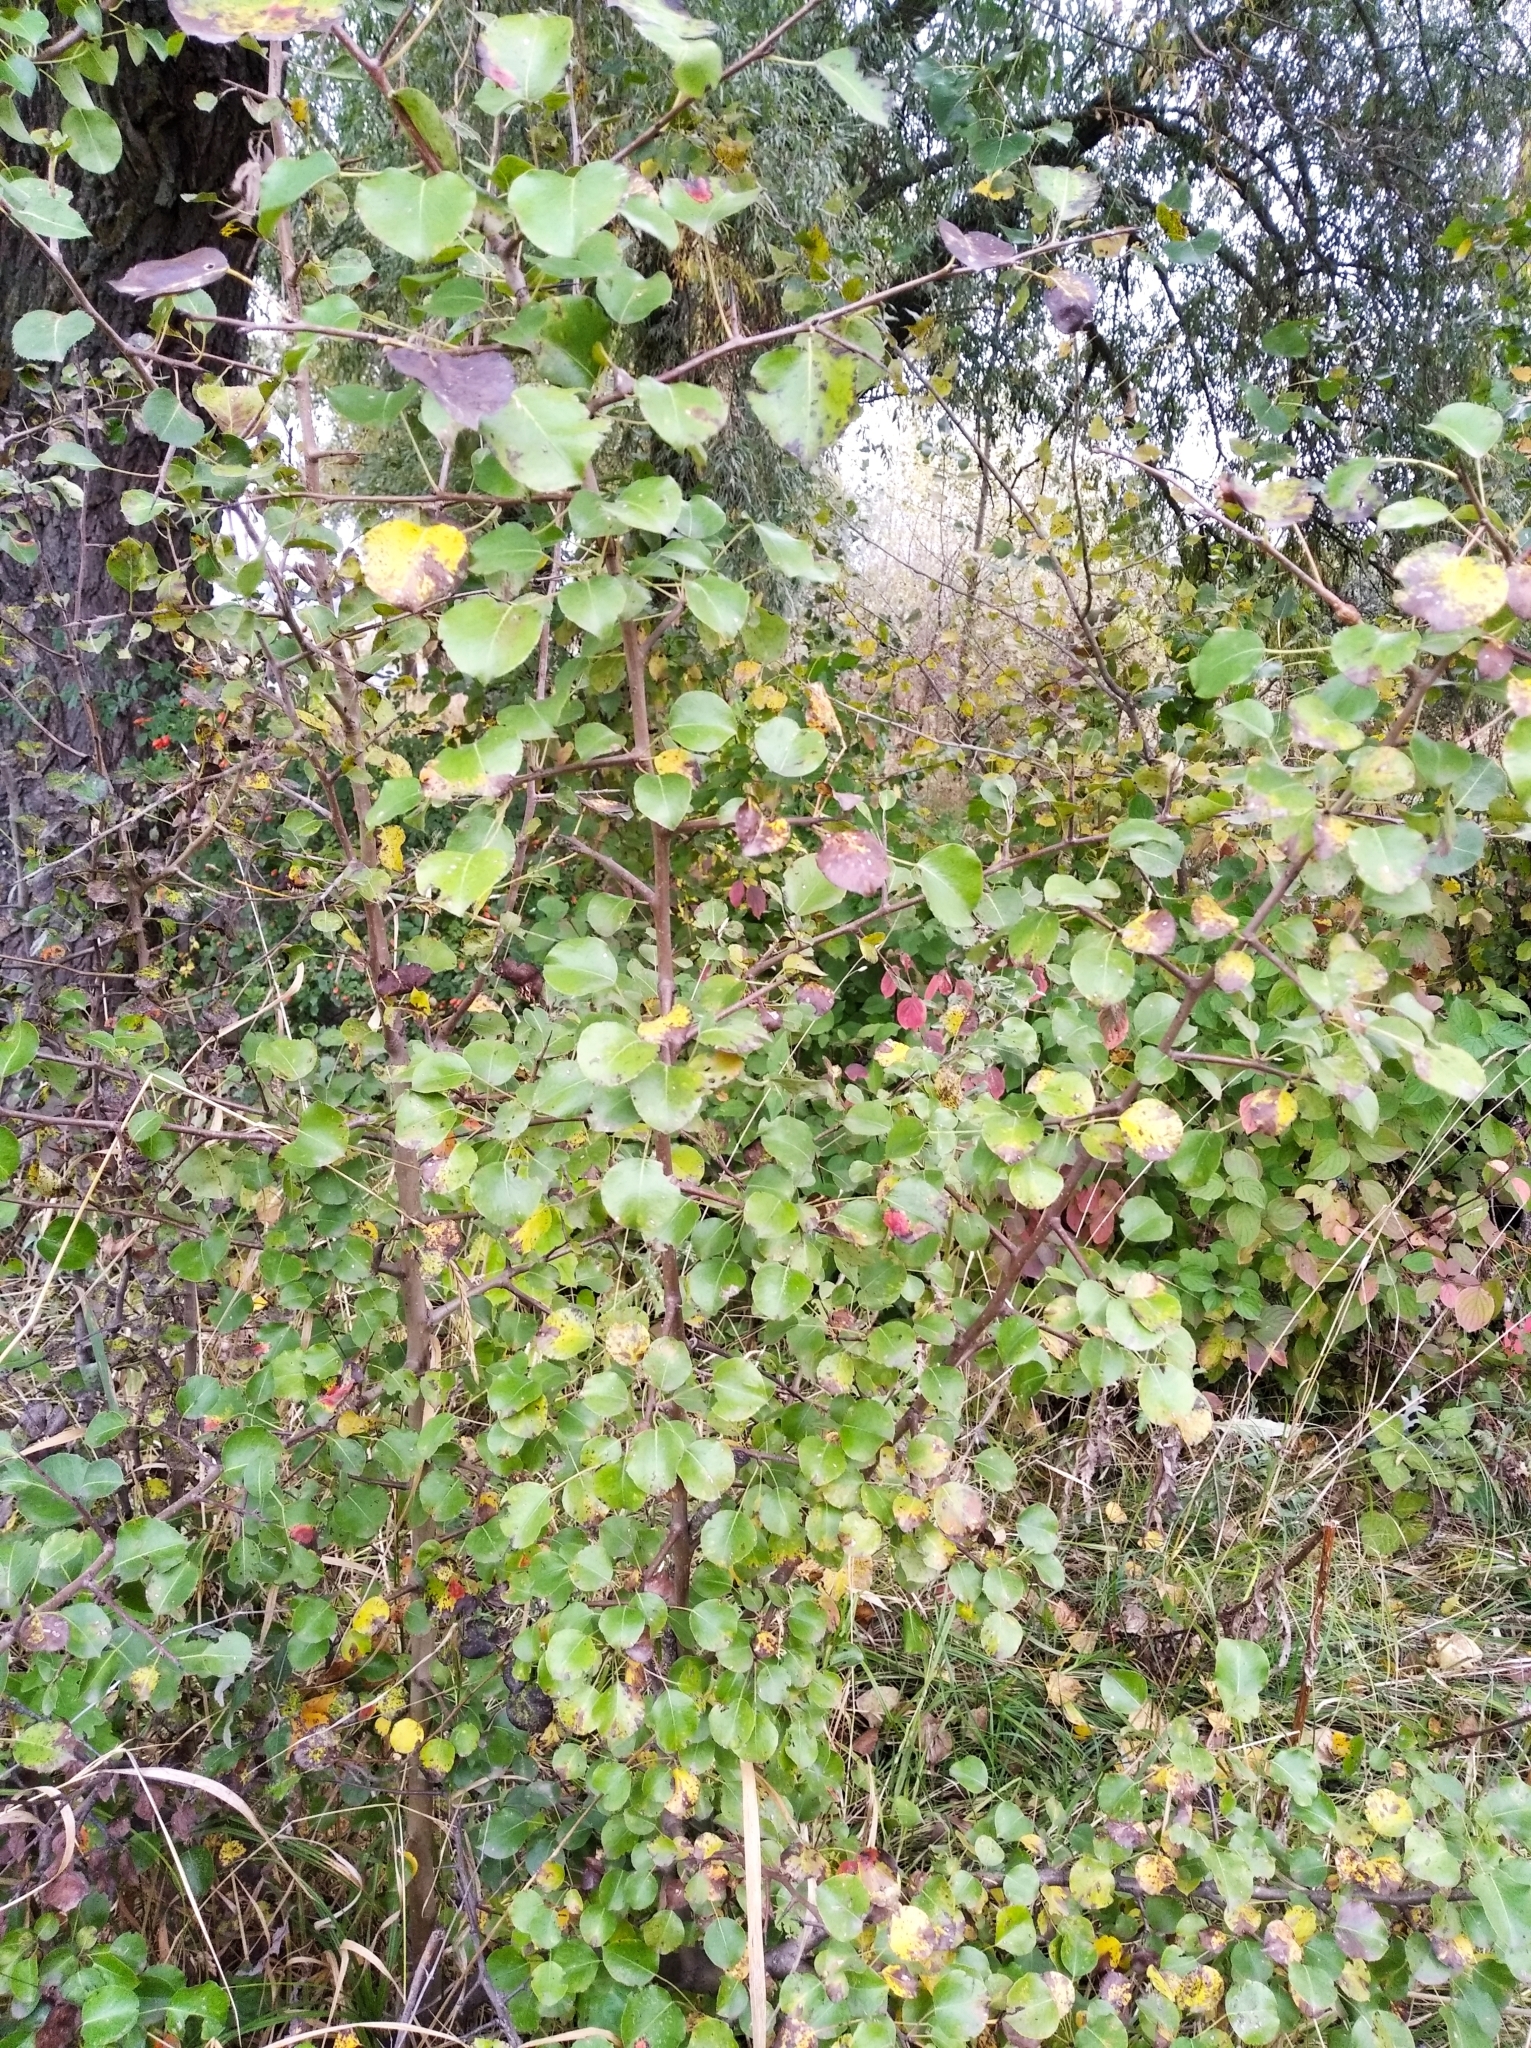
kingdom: Plantae
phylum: Tracheophyta
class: Magnoliopsida
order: Rosales
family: Rosaceae
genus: Pyrus
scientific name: Pyrus communis
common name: Pear
